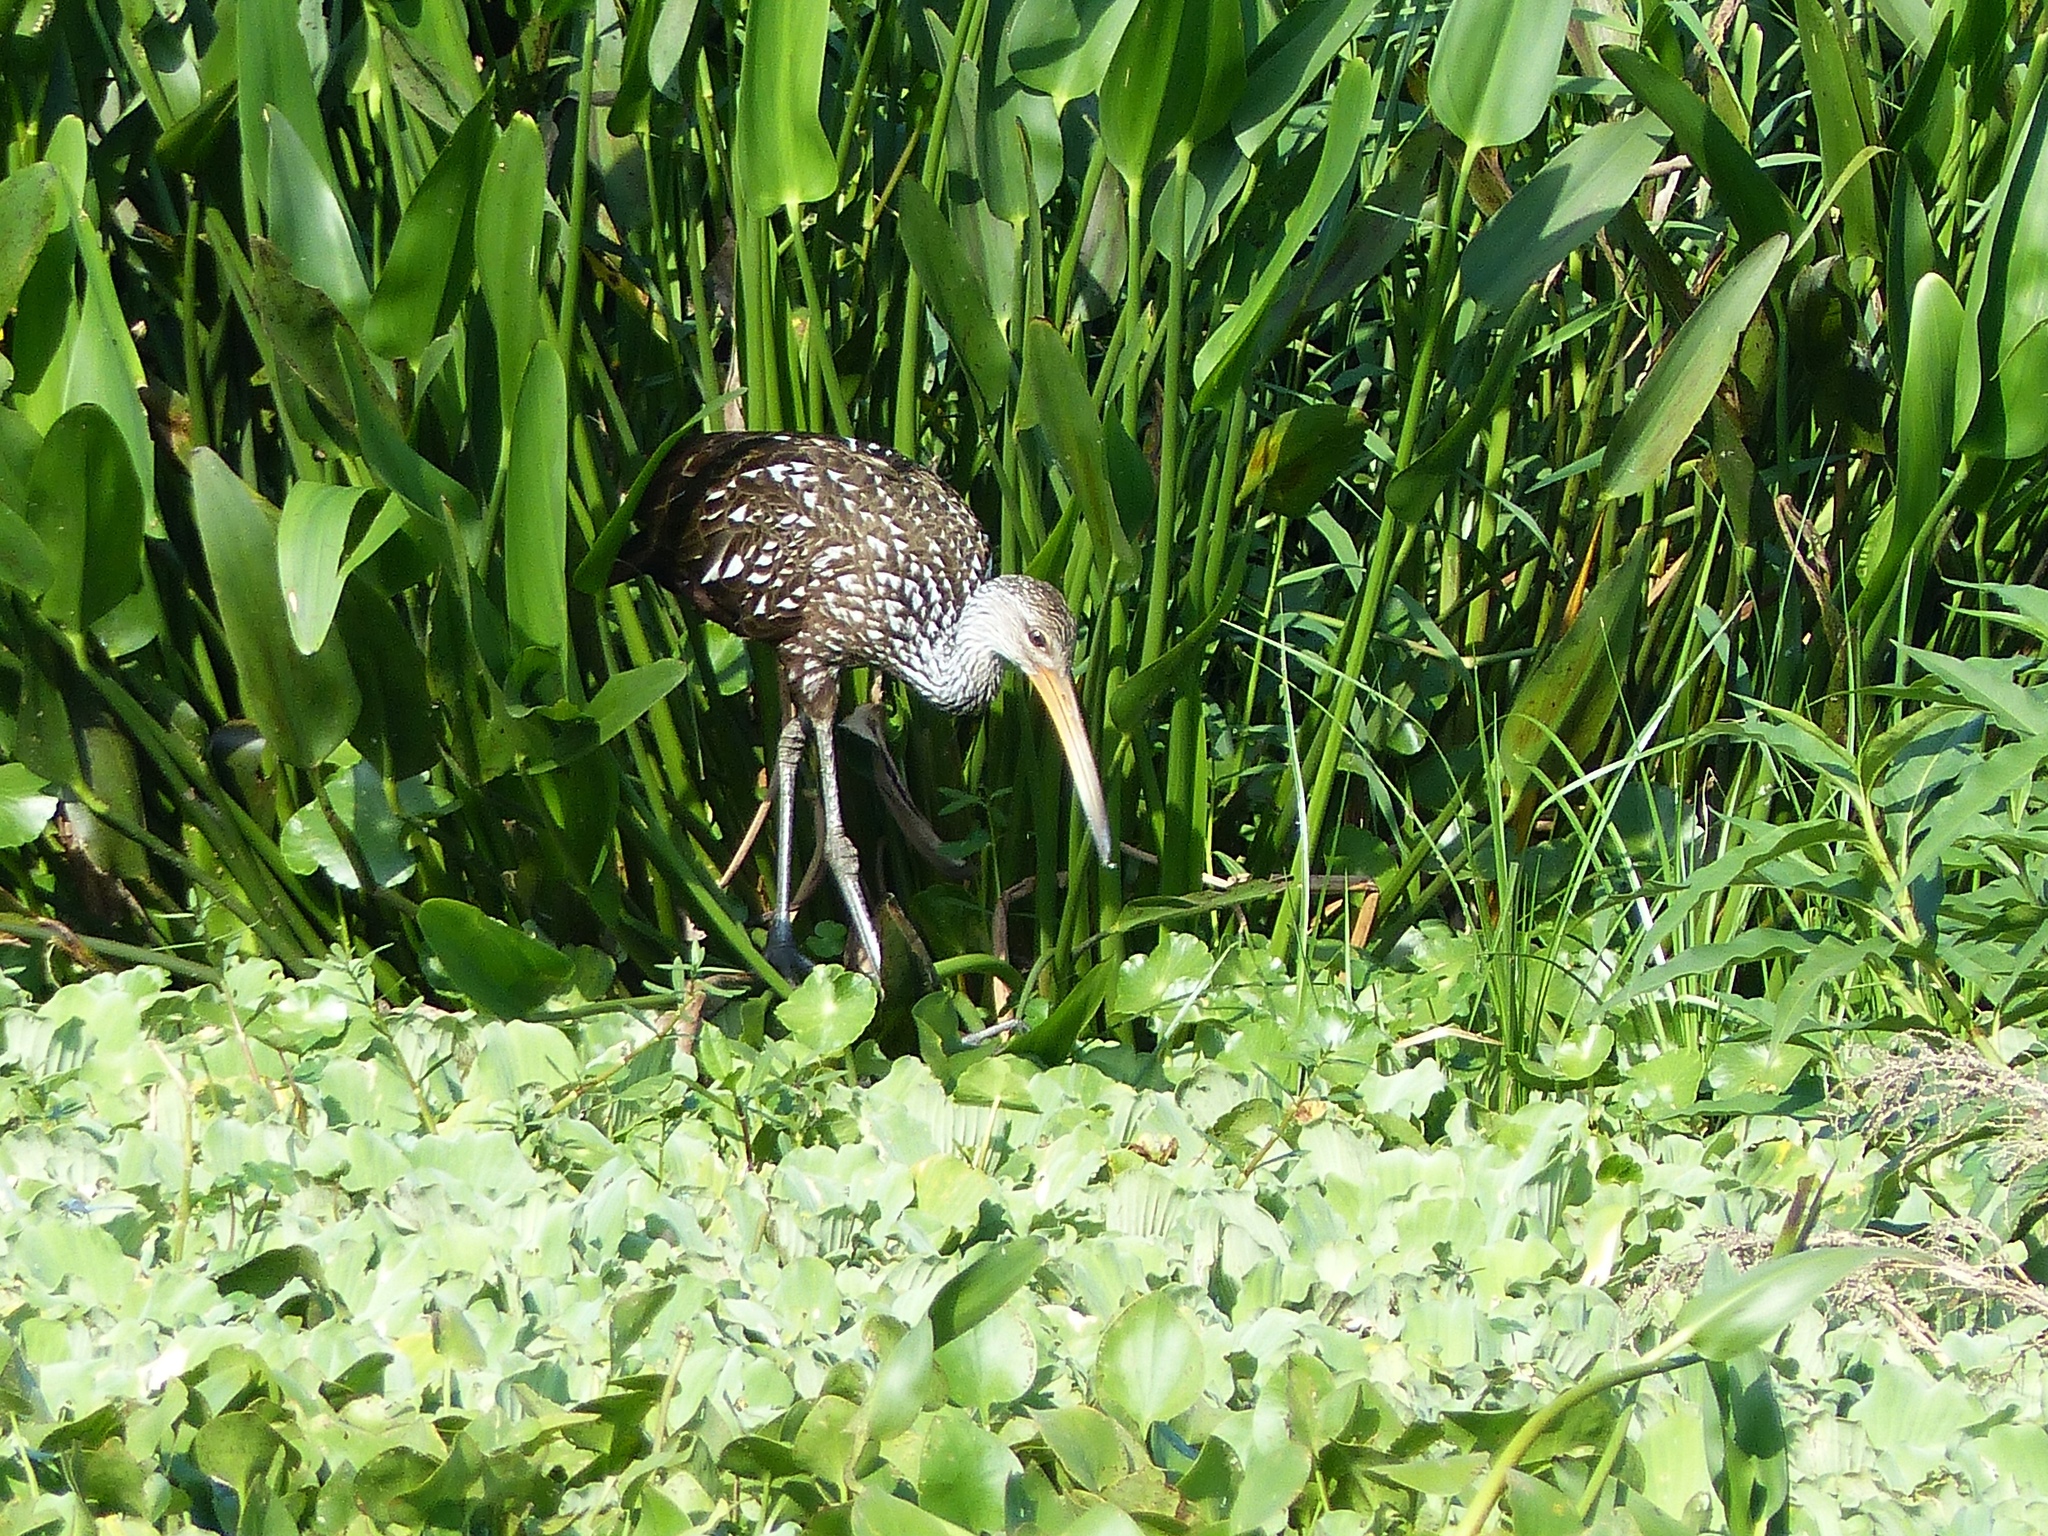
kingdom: Animalia
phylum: Chordata
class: Aves
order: Gruiformes
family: Aramidae
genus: Aramus
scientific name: Aramus guarauna
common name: Limpkin
